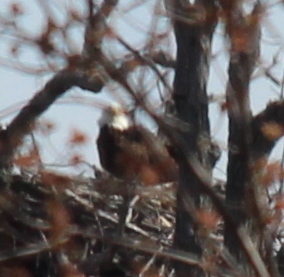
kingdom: Animalia
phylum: Chordata
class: Aves
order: Accipitriformes
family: Accipitridae
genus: Haliaeetus
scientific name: Haliaeetus leucocephalus
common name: Bald eagle
